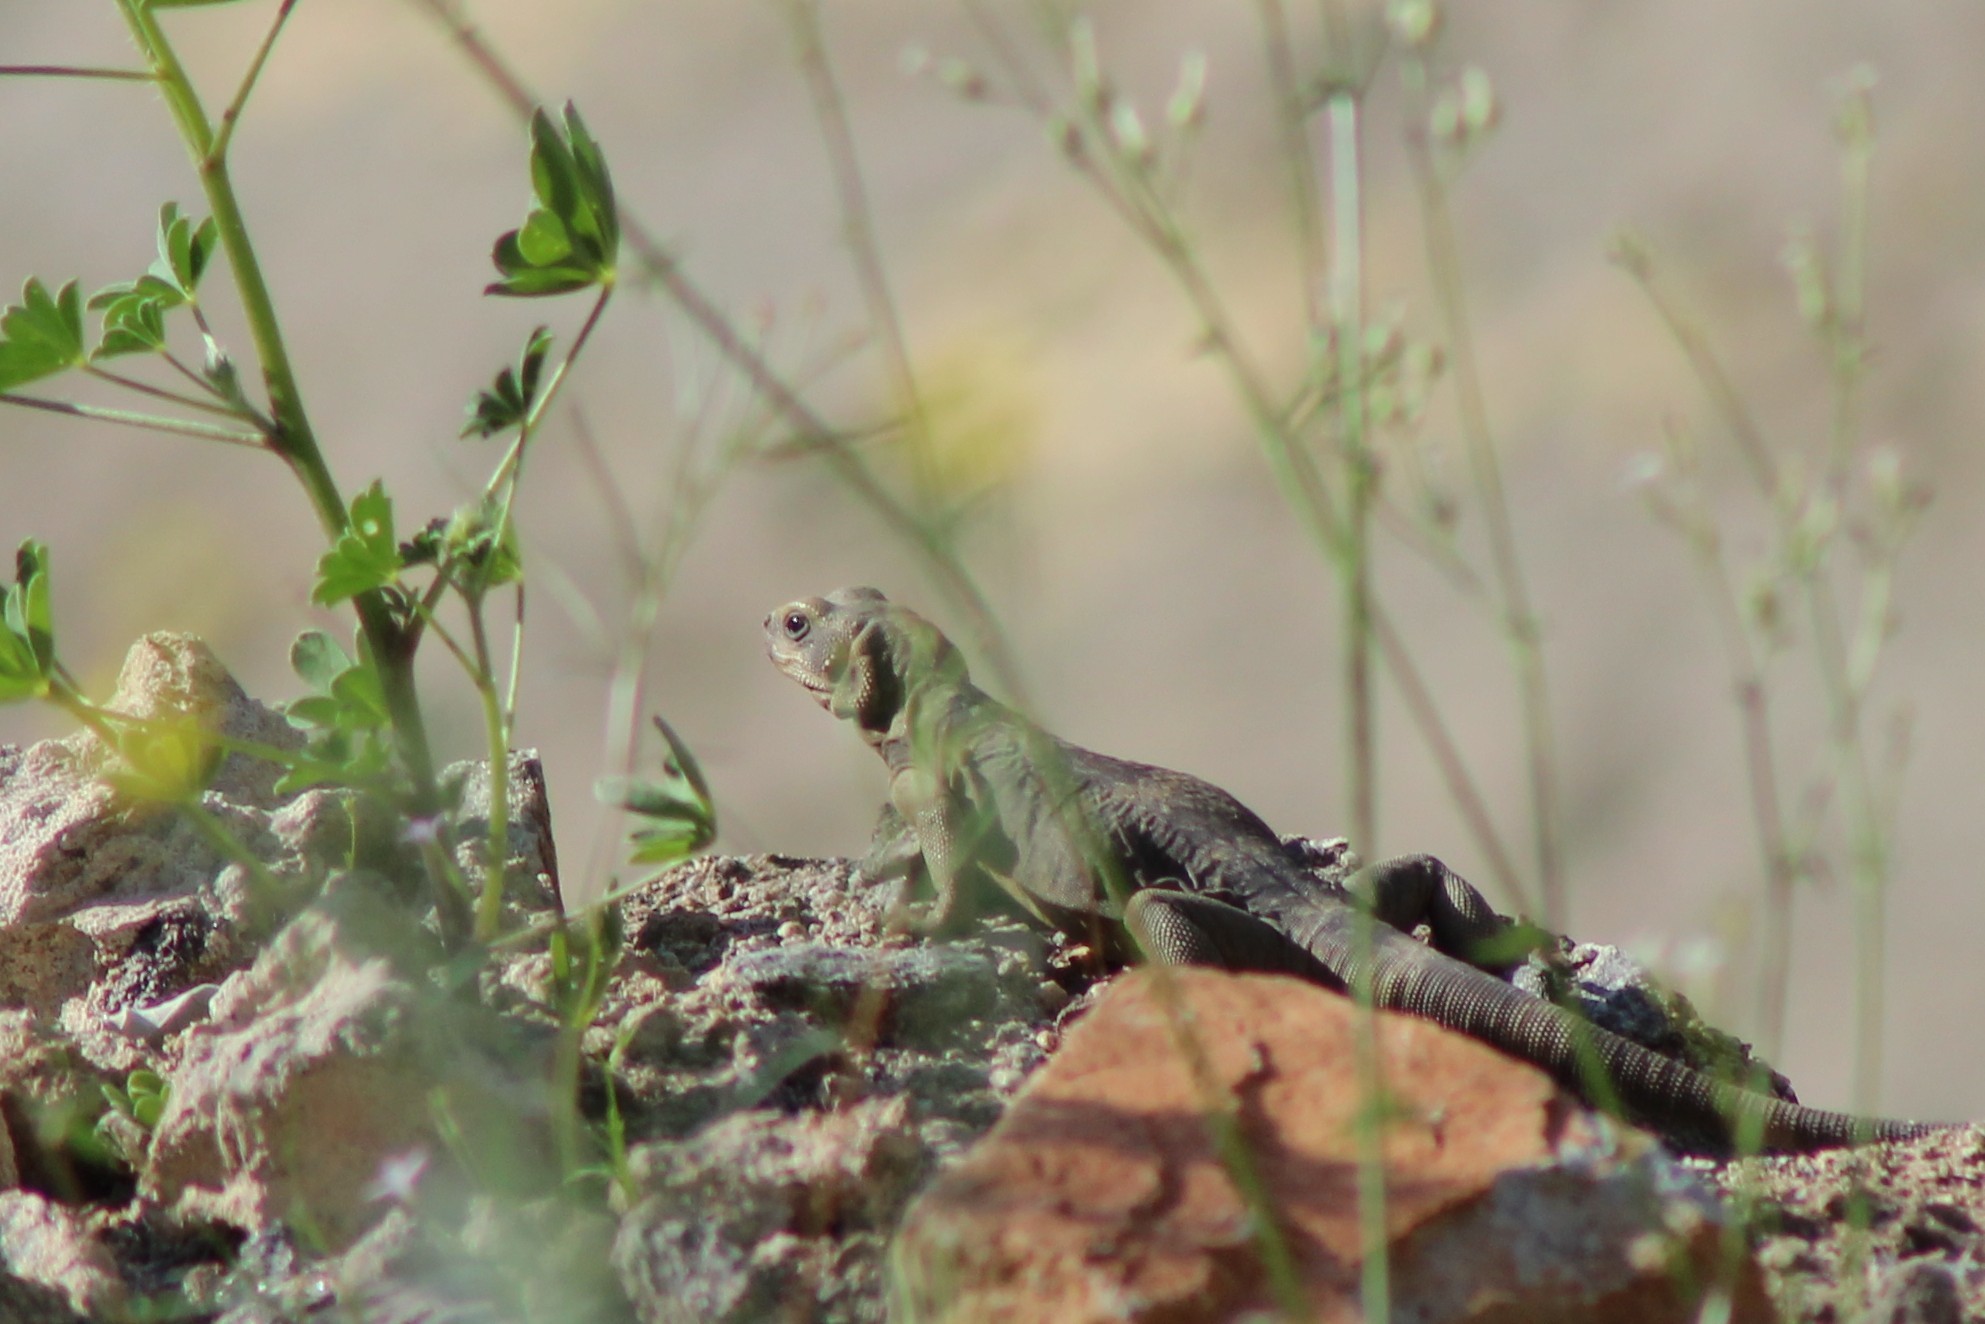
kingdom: Animalia
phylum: Chordata
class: Squamata
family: Iguanidae
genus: Sauromalus
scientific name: Sauromalus ater
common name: Northern chuckwalla
